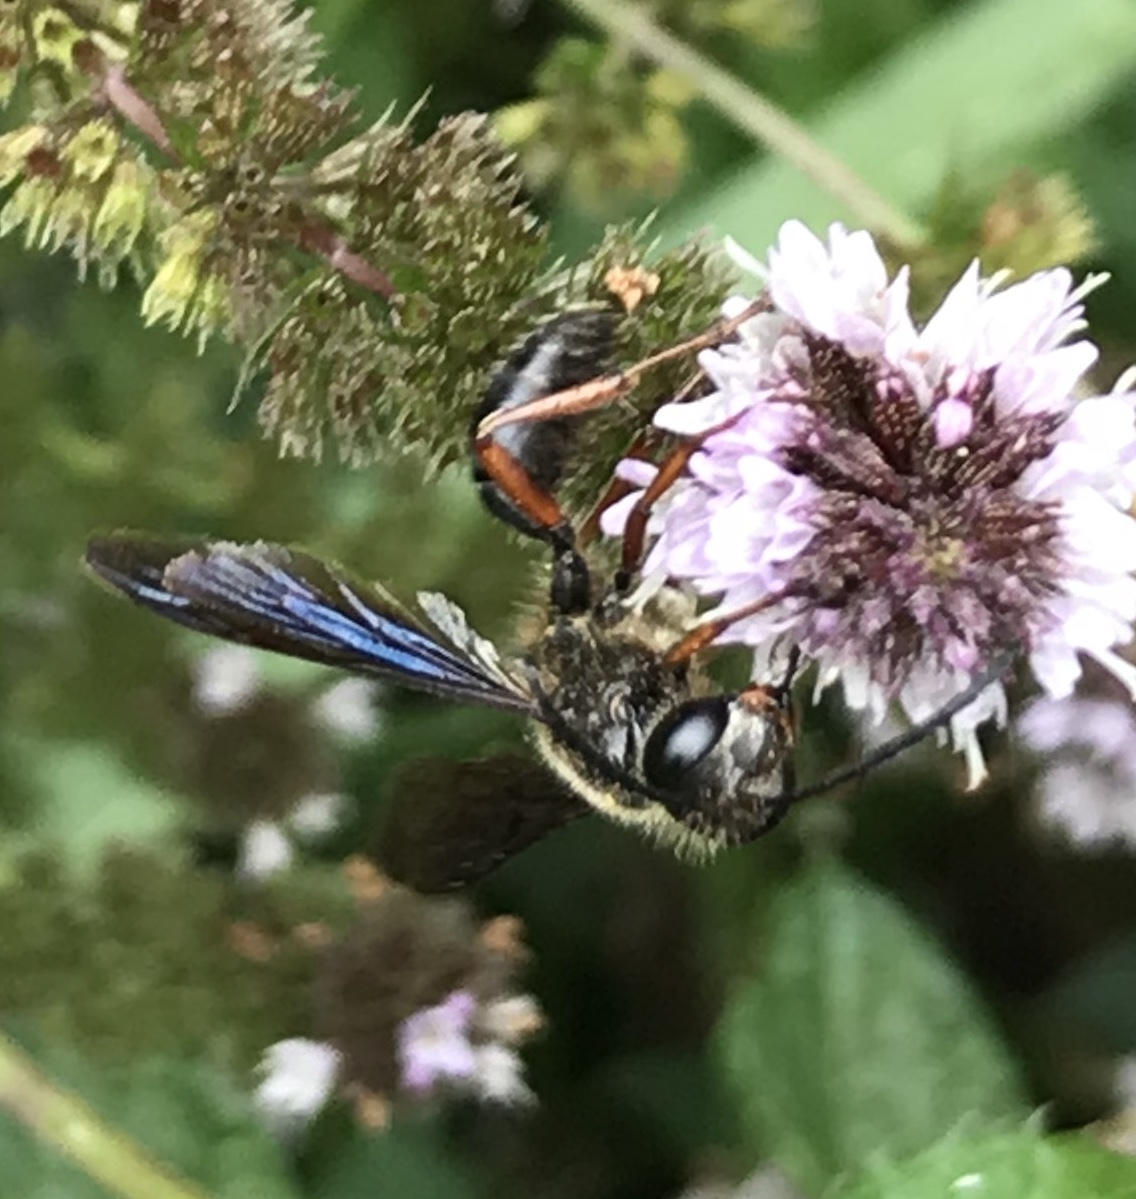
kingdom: Animalia
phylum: Arthropoda
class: Insecta
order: Hymenoptera
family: Sphecidae
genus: Isodontia
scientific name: Isodontia auripes
